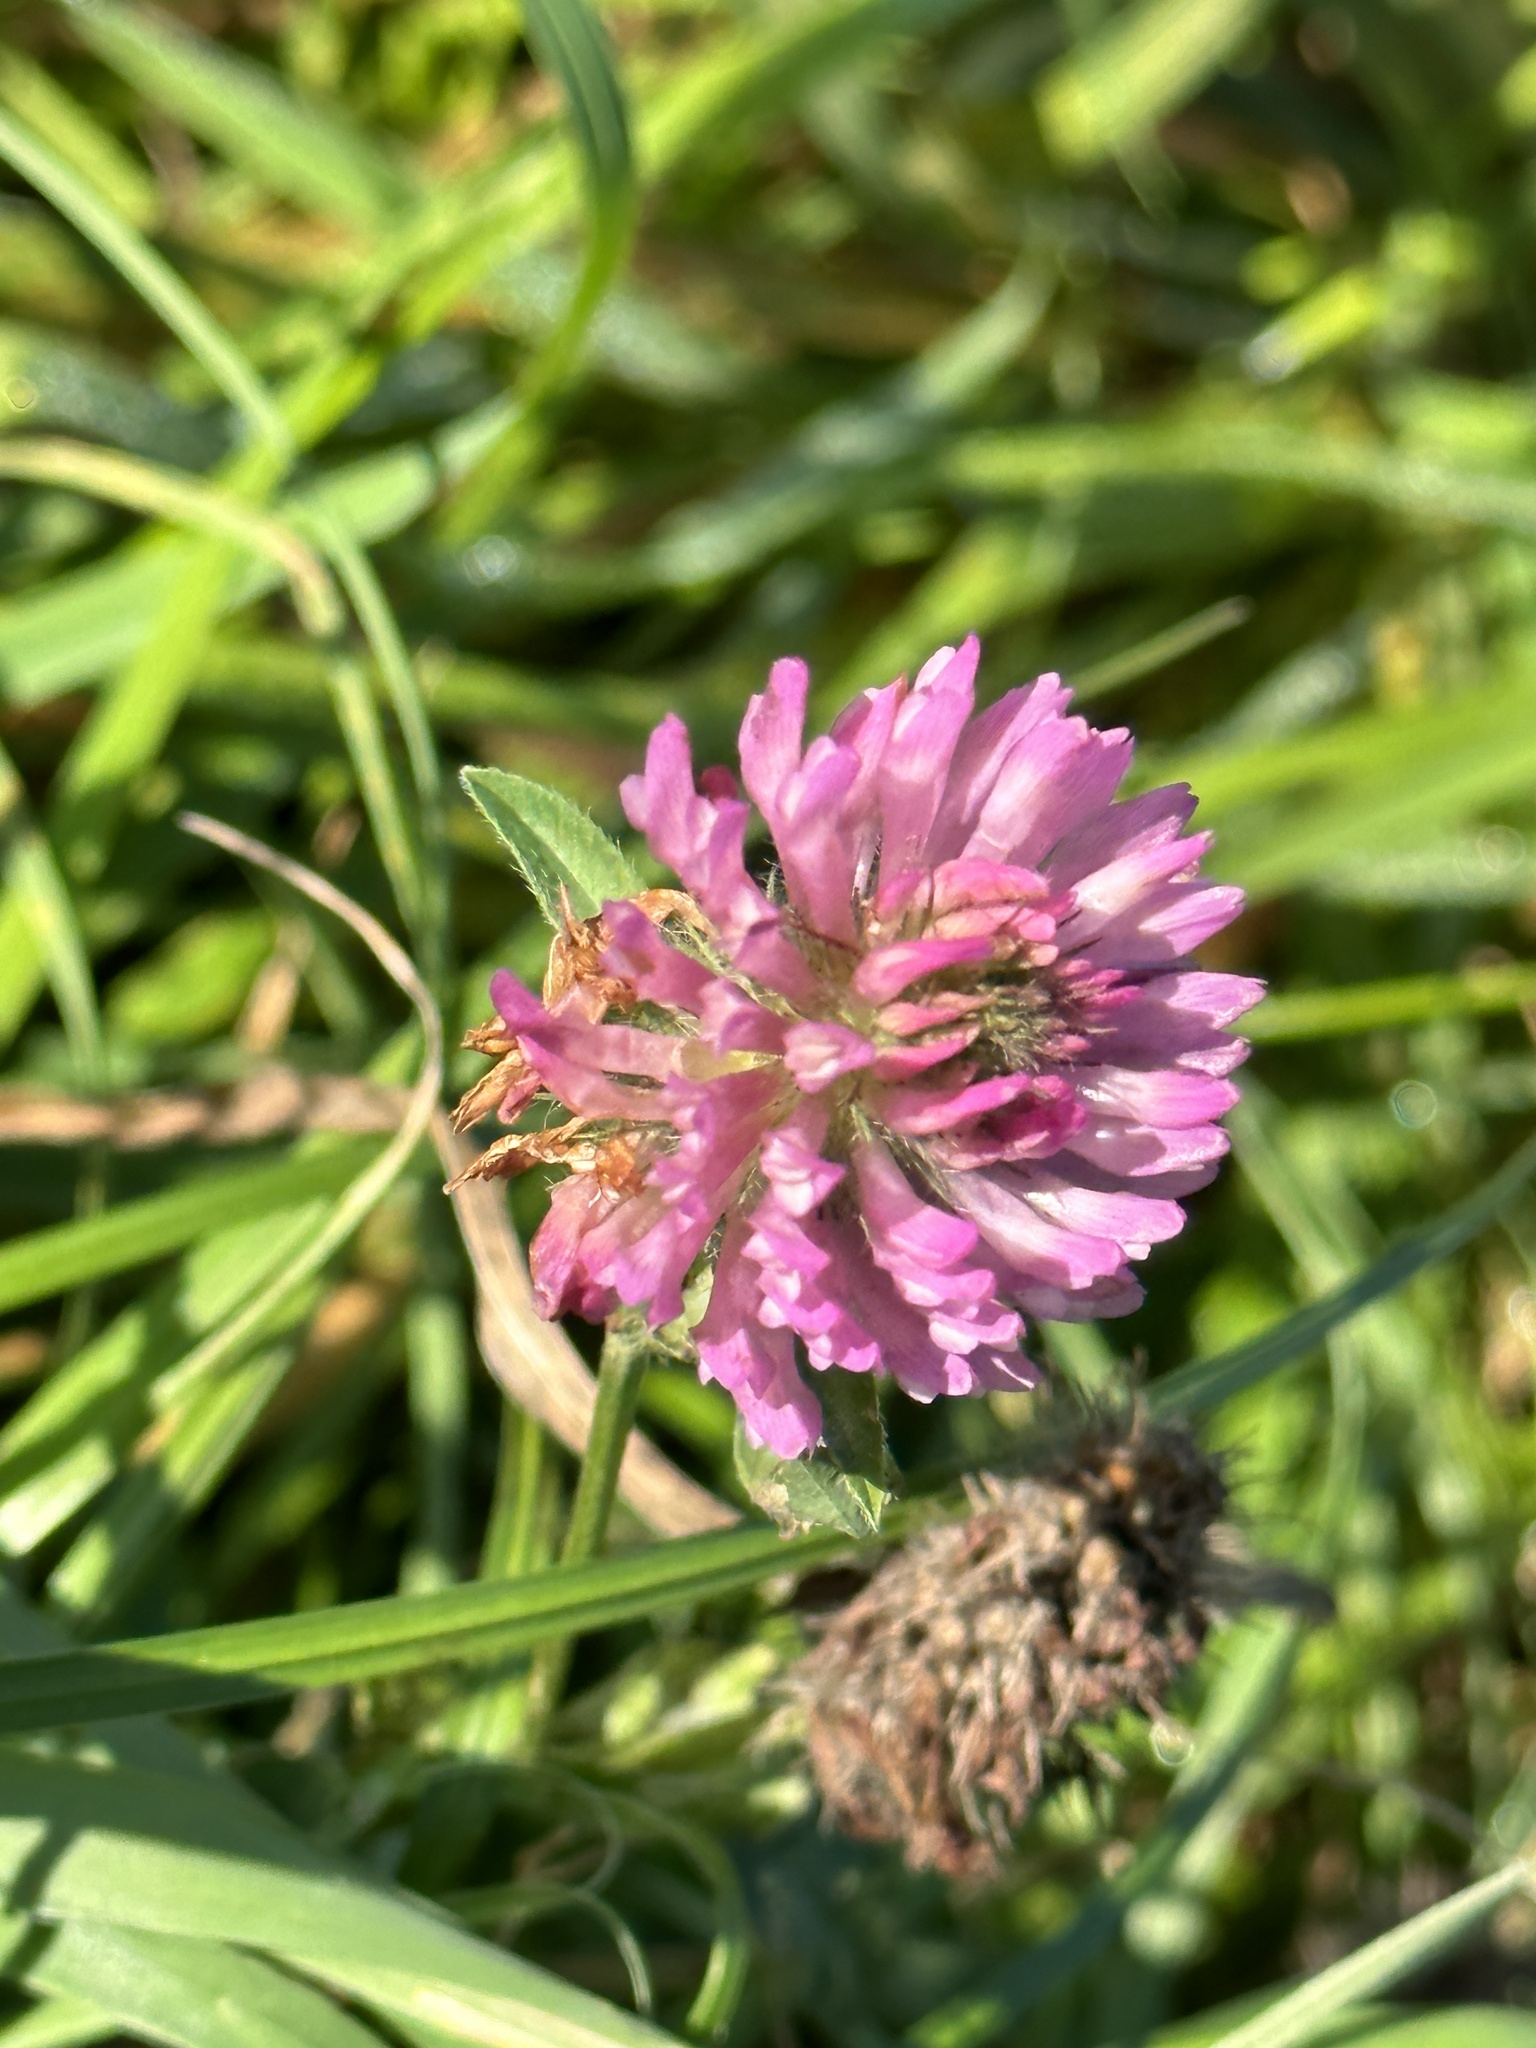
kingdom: Plantae
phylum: Tracheophyta
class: Magnoliopsida
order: Fabales
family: Fabaceae
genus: Trifolium
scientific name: Trifolium pratense
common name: Red clover
